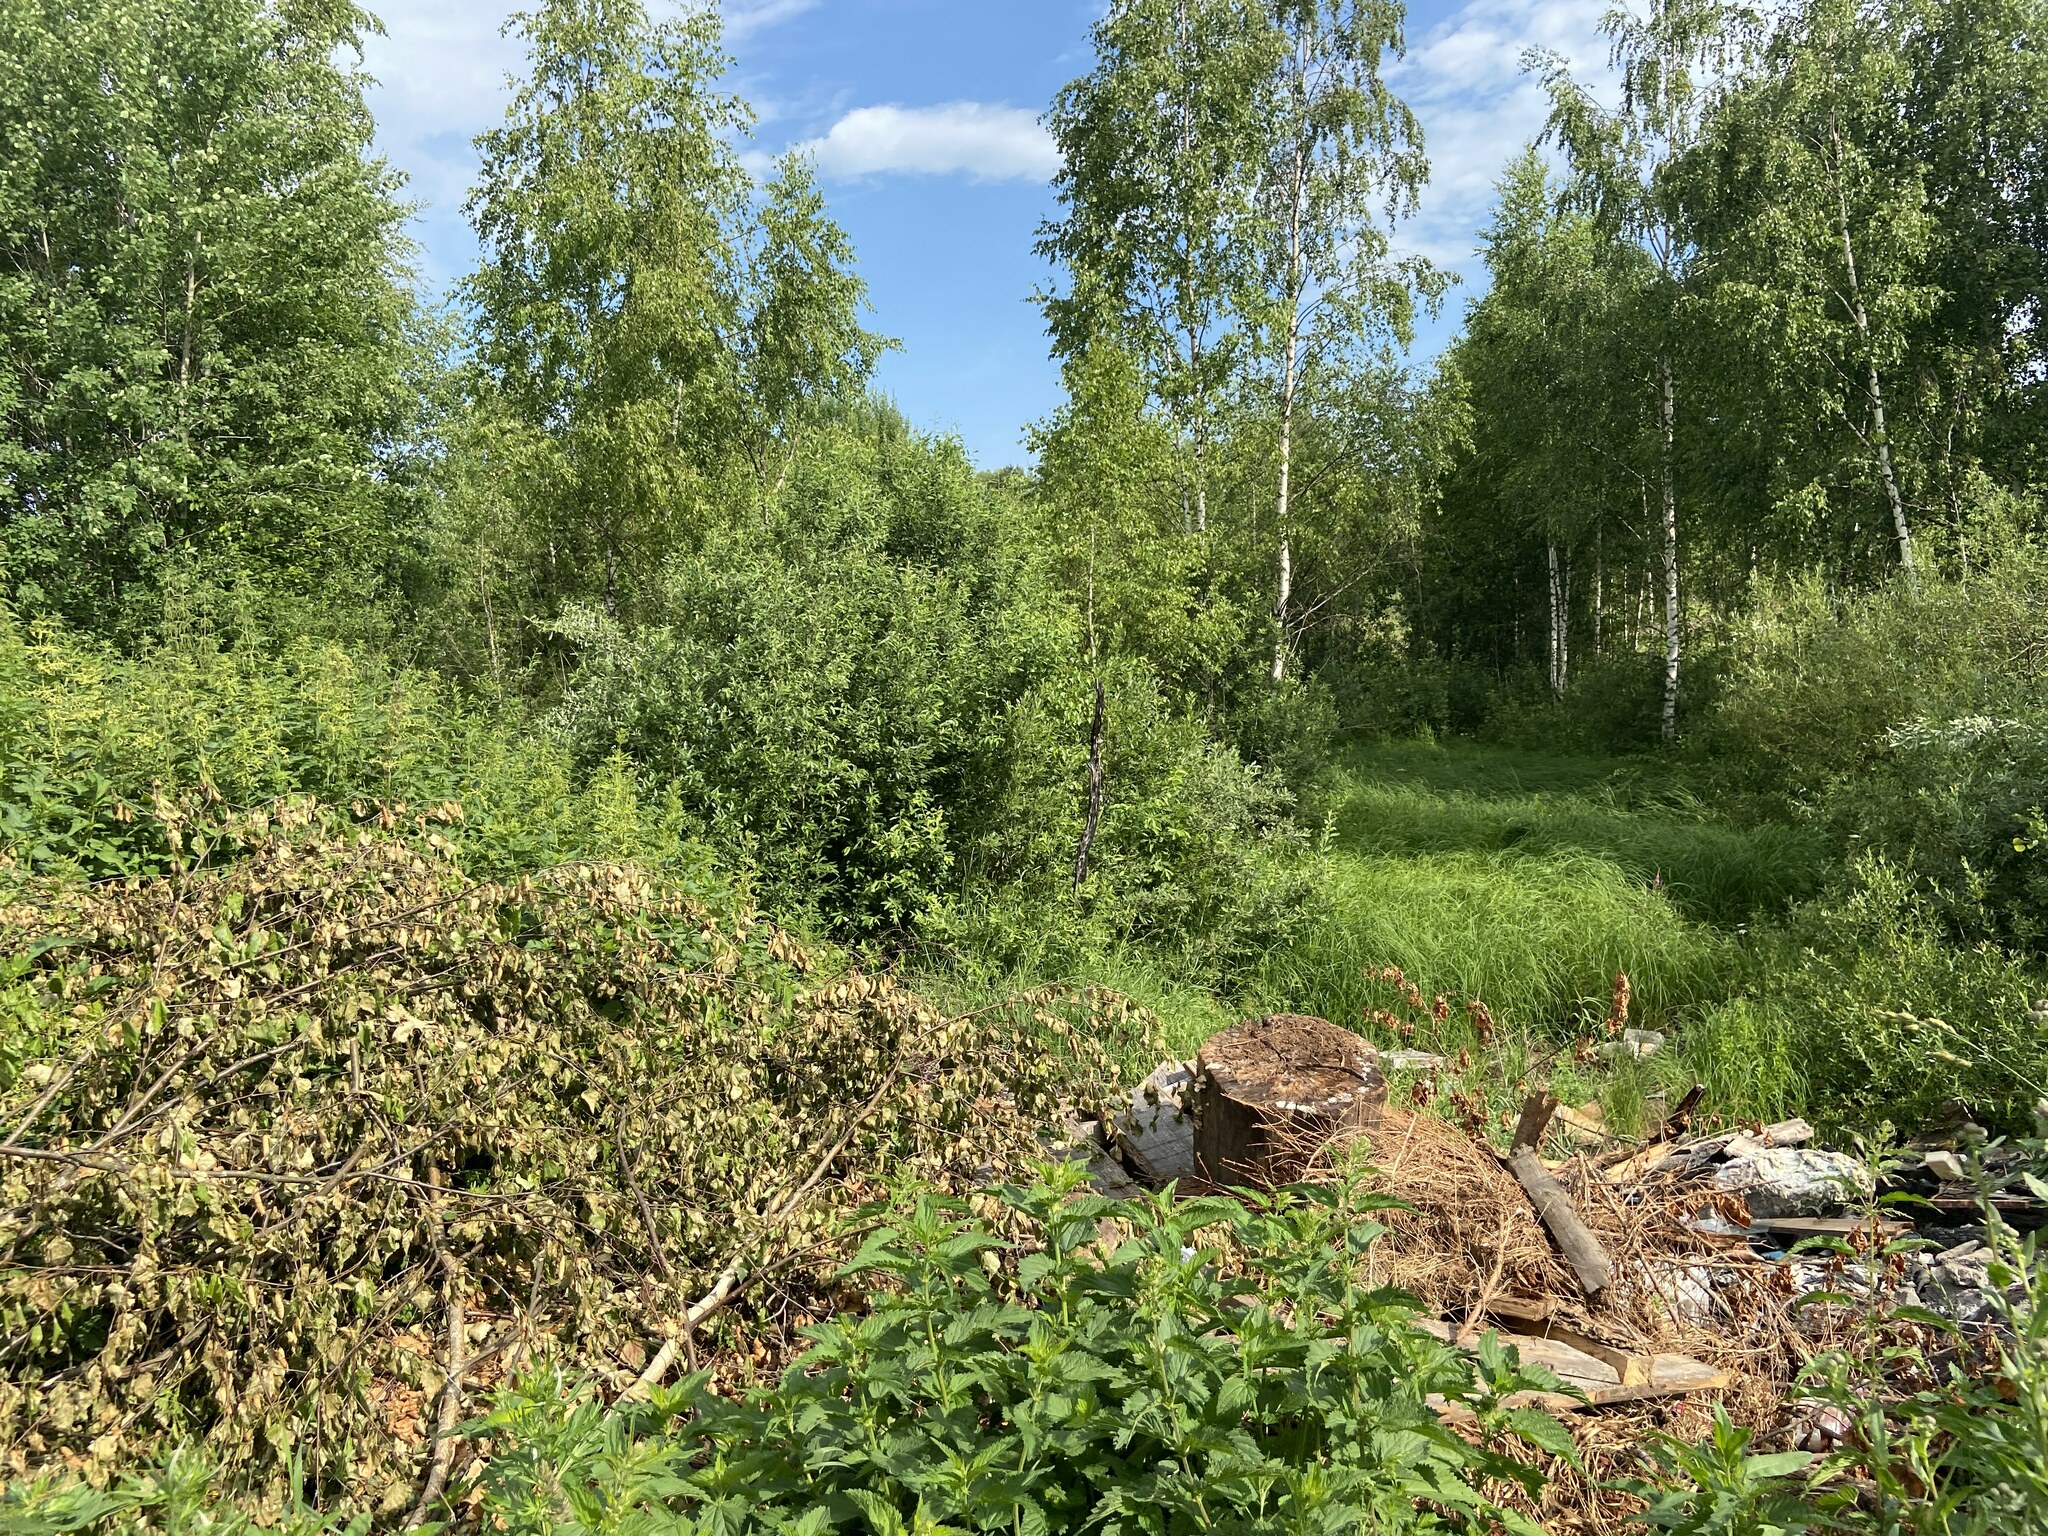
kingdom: Plantae
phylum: Tracheophyta
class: Magnoliopsida
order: Fagales
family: Betulaceae
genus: Betula
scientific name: Betula pendula
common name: Silver birch
